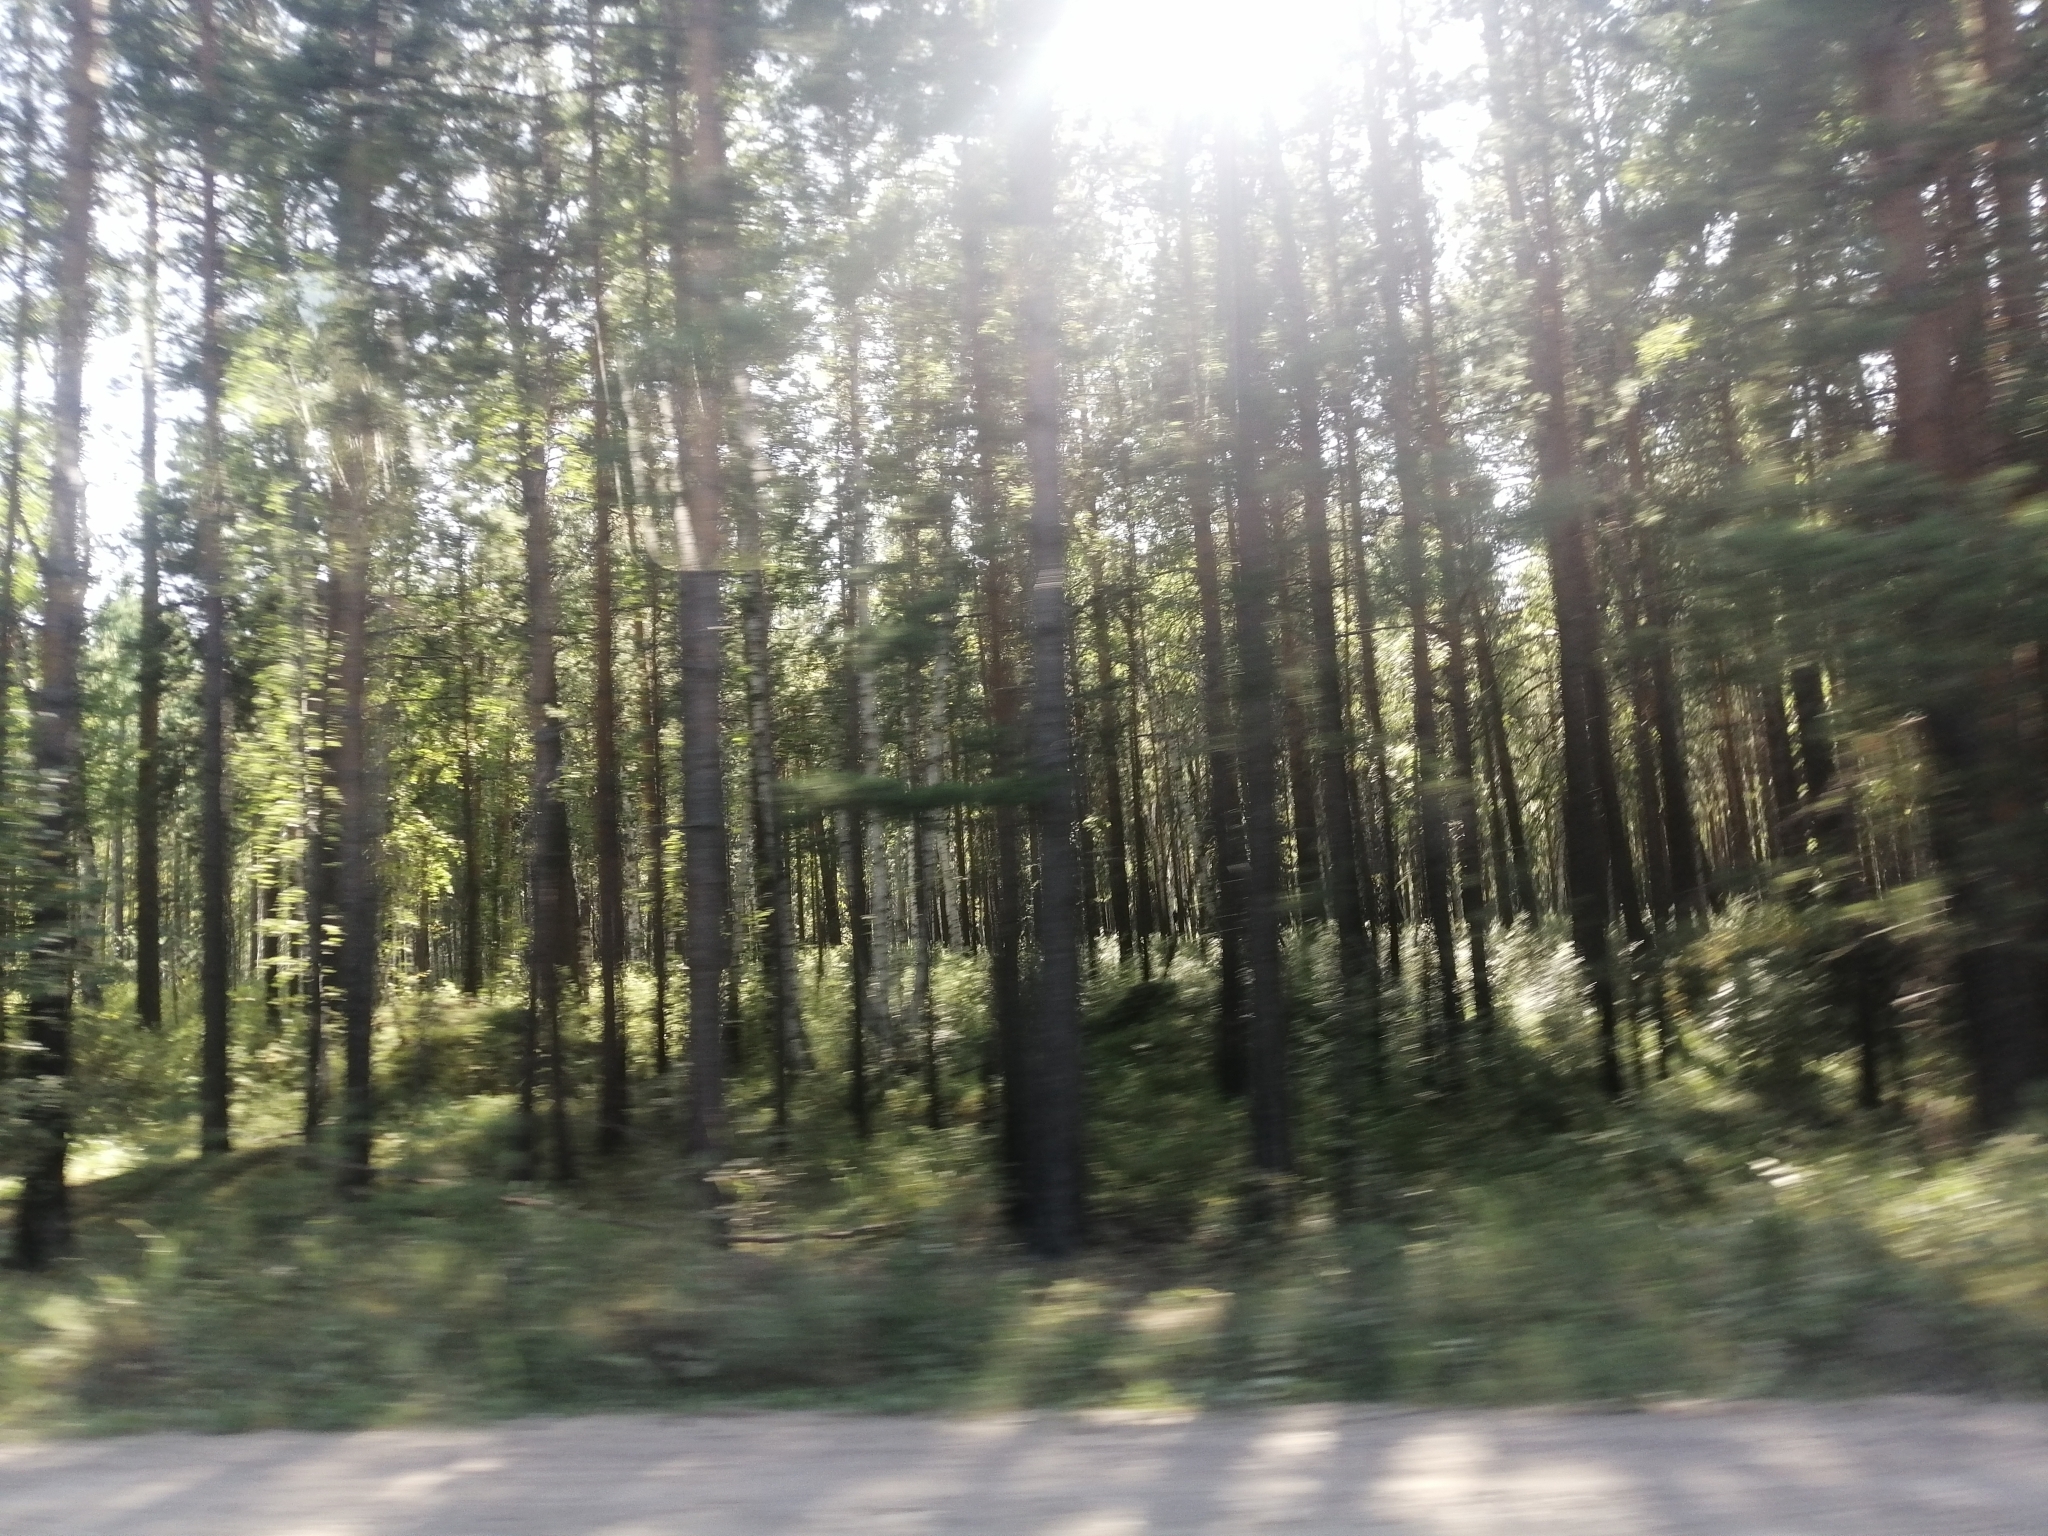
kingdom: Plantae
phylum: Tracheophyta
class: Pinopsida
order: Pinales
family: Pinaceae
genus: Pinus
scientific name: Pinus sylvestris
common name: Scots pine
